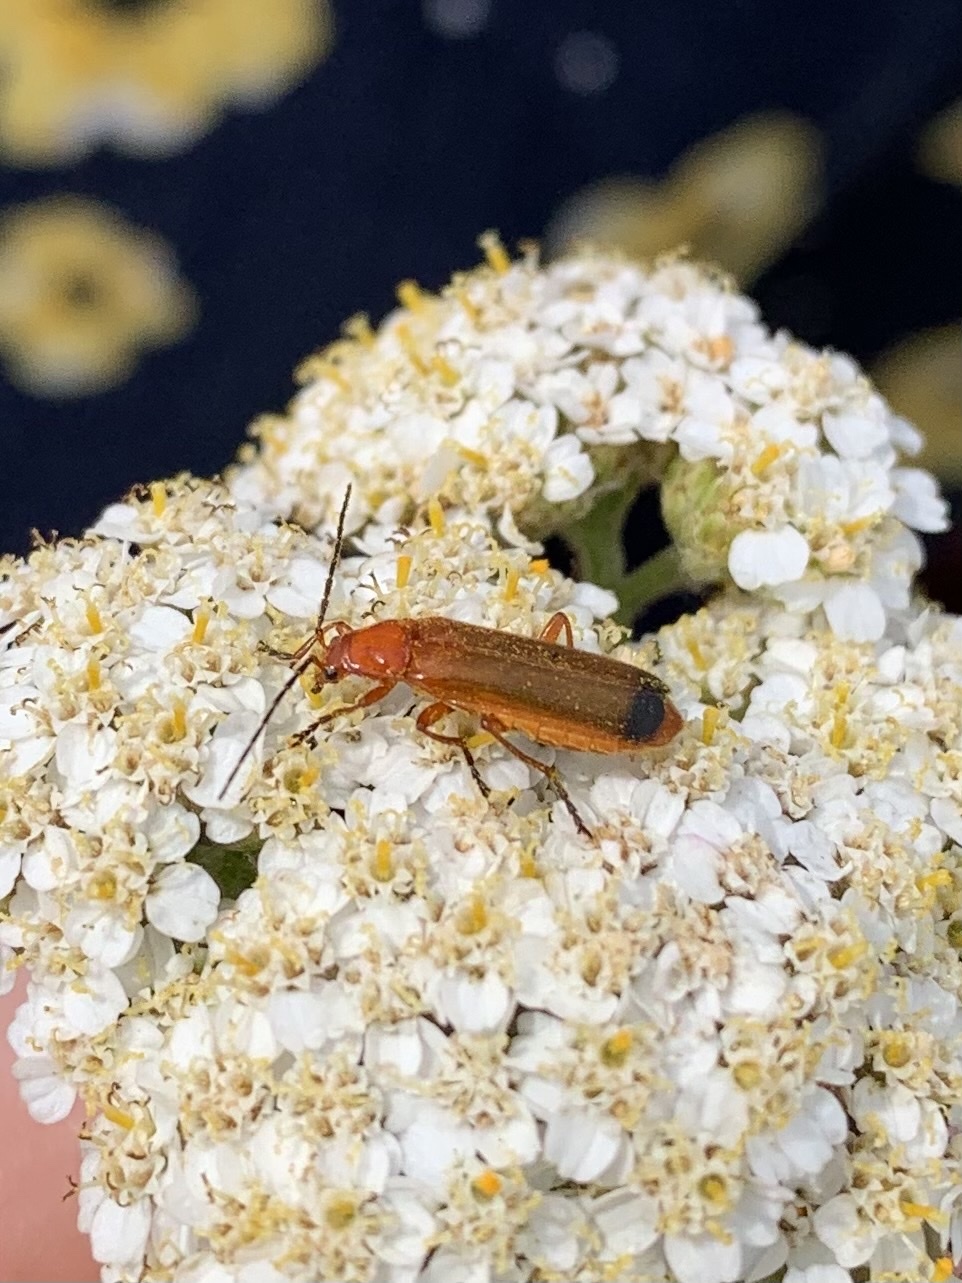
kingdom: Animalia
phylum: Arthropoda
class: Insecta
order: Coleoptera
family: Cantharidae
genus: Rhagonycha
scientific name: Rhagonycha fulva
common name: Common red soldier beetle
